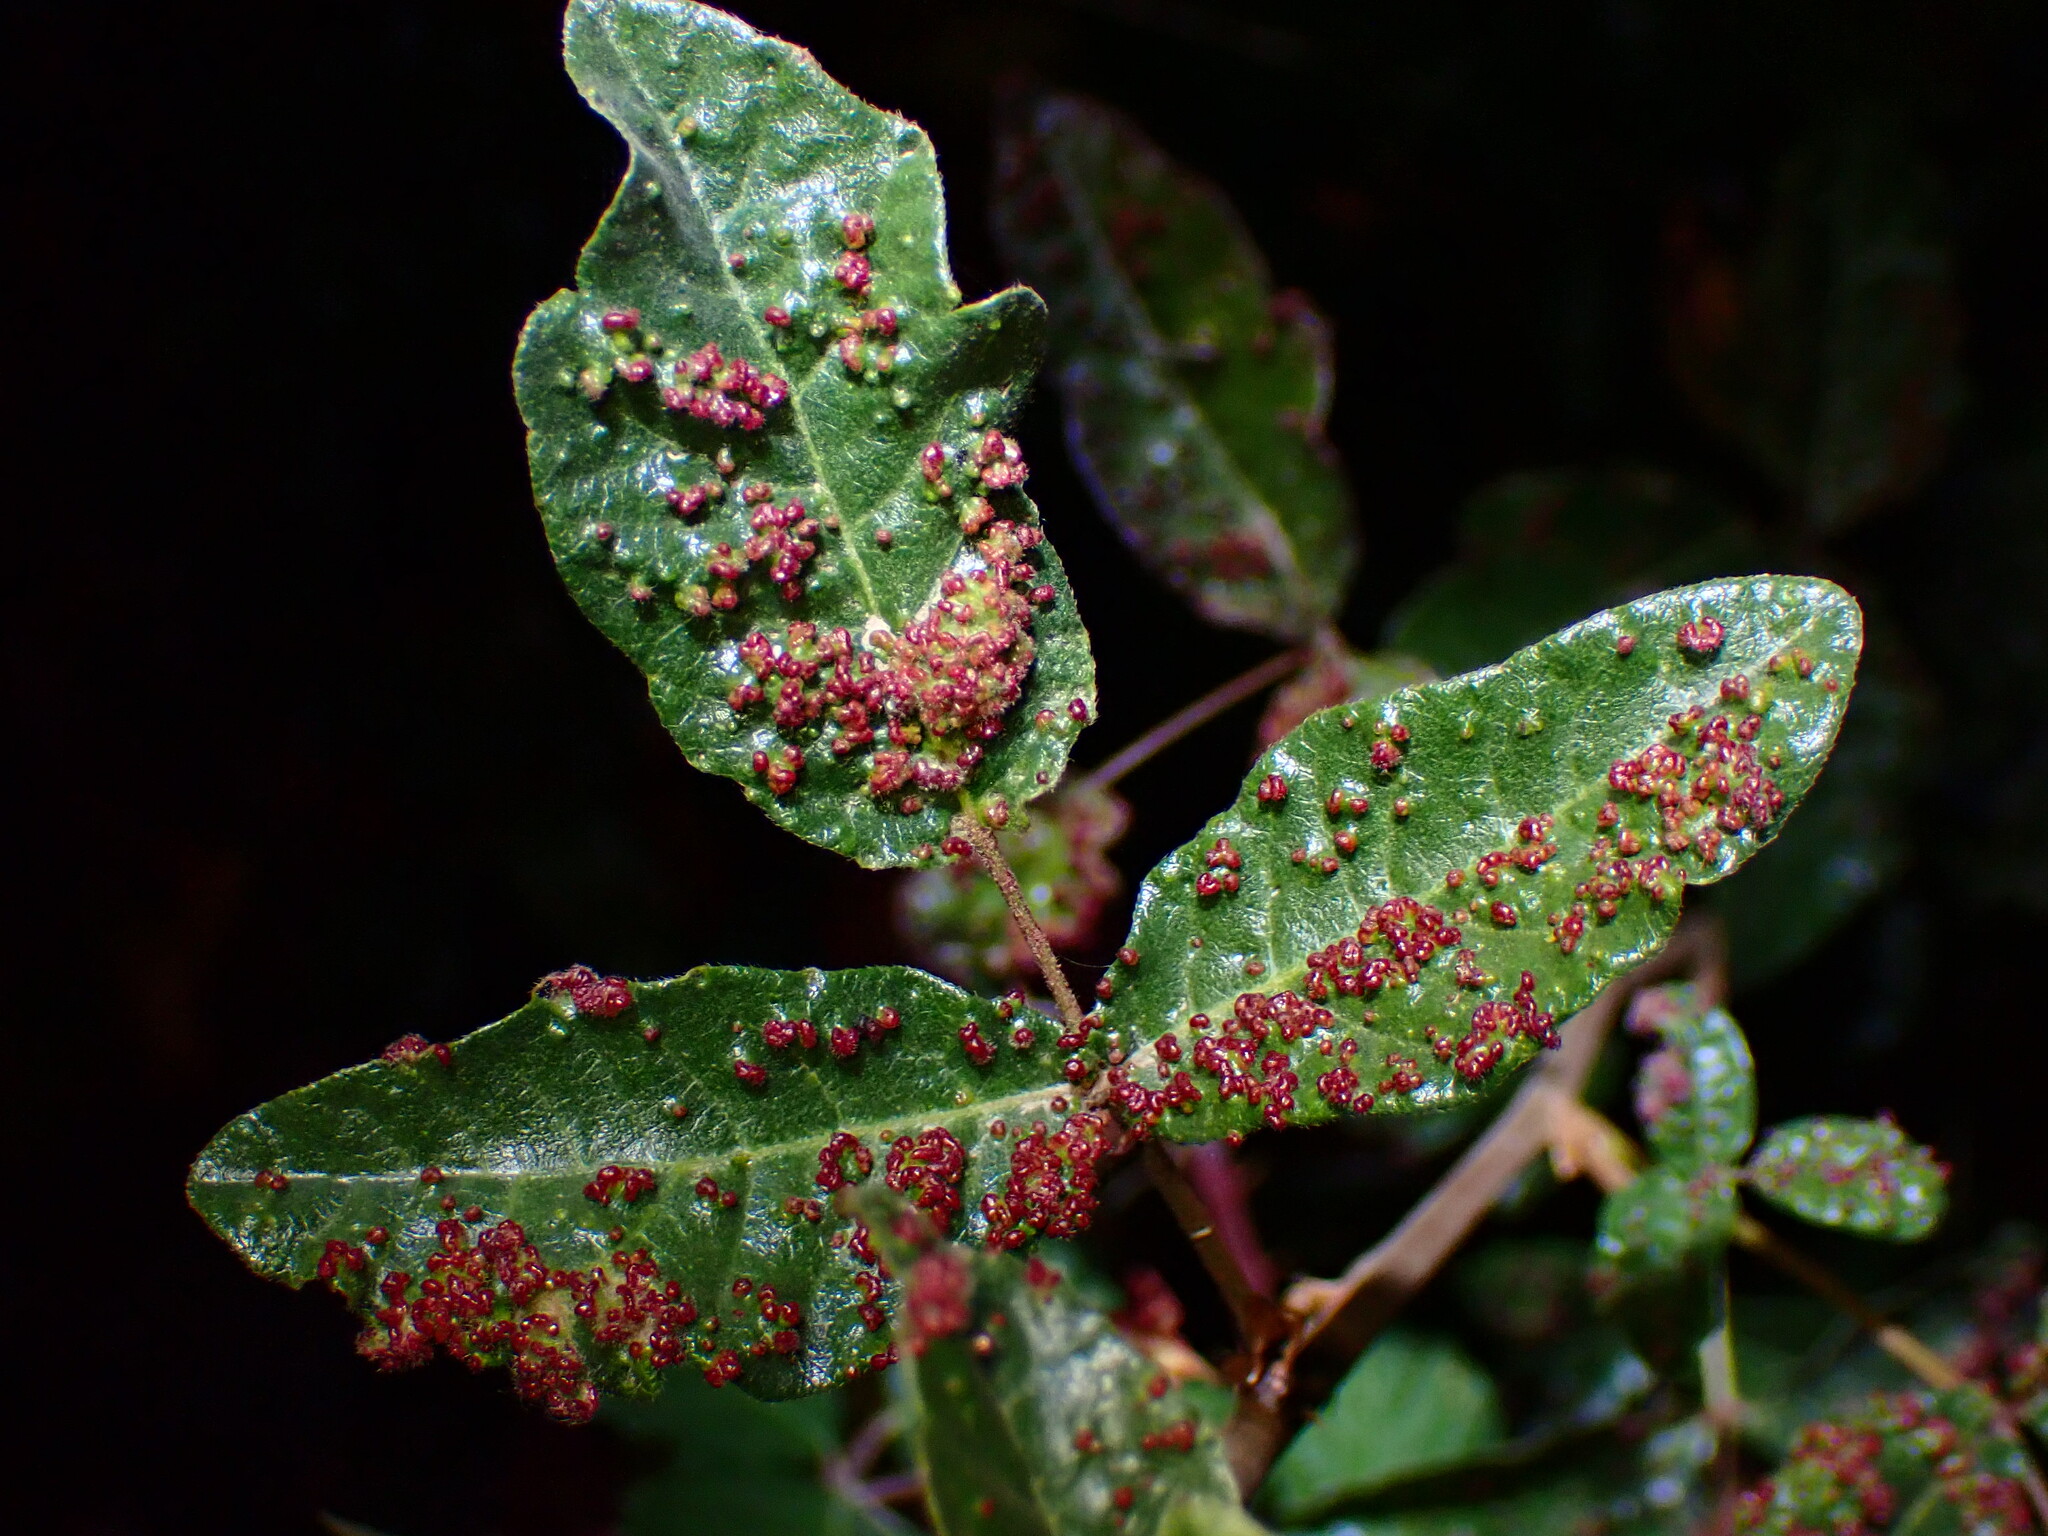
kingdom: Animalia
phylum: Arthropoda
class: Arachnida
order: Trombidiformes
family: Eriophyidae
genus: Aculops
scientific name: Aculops
